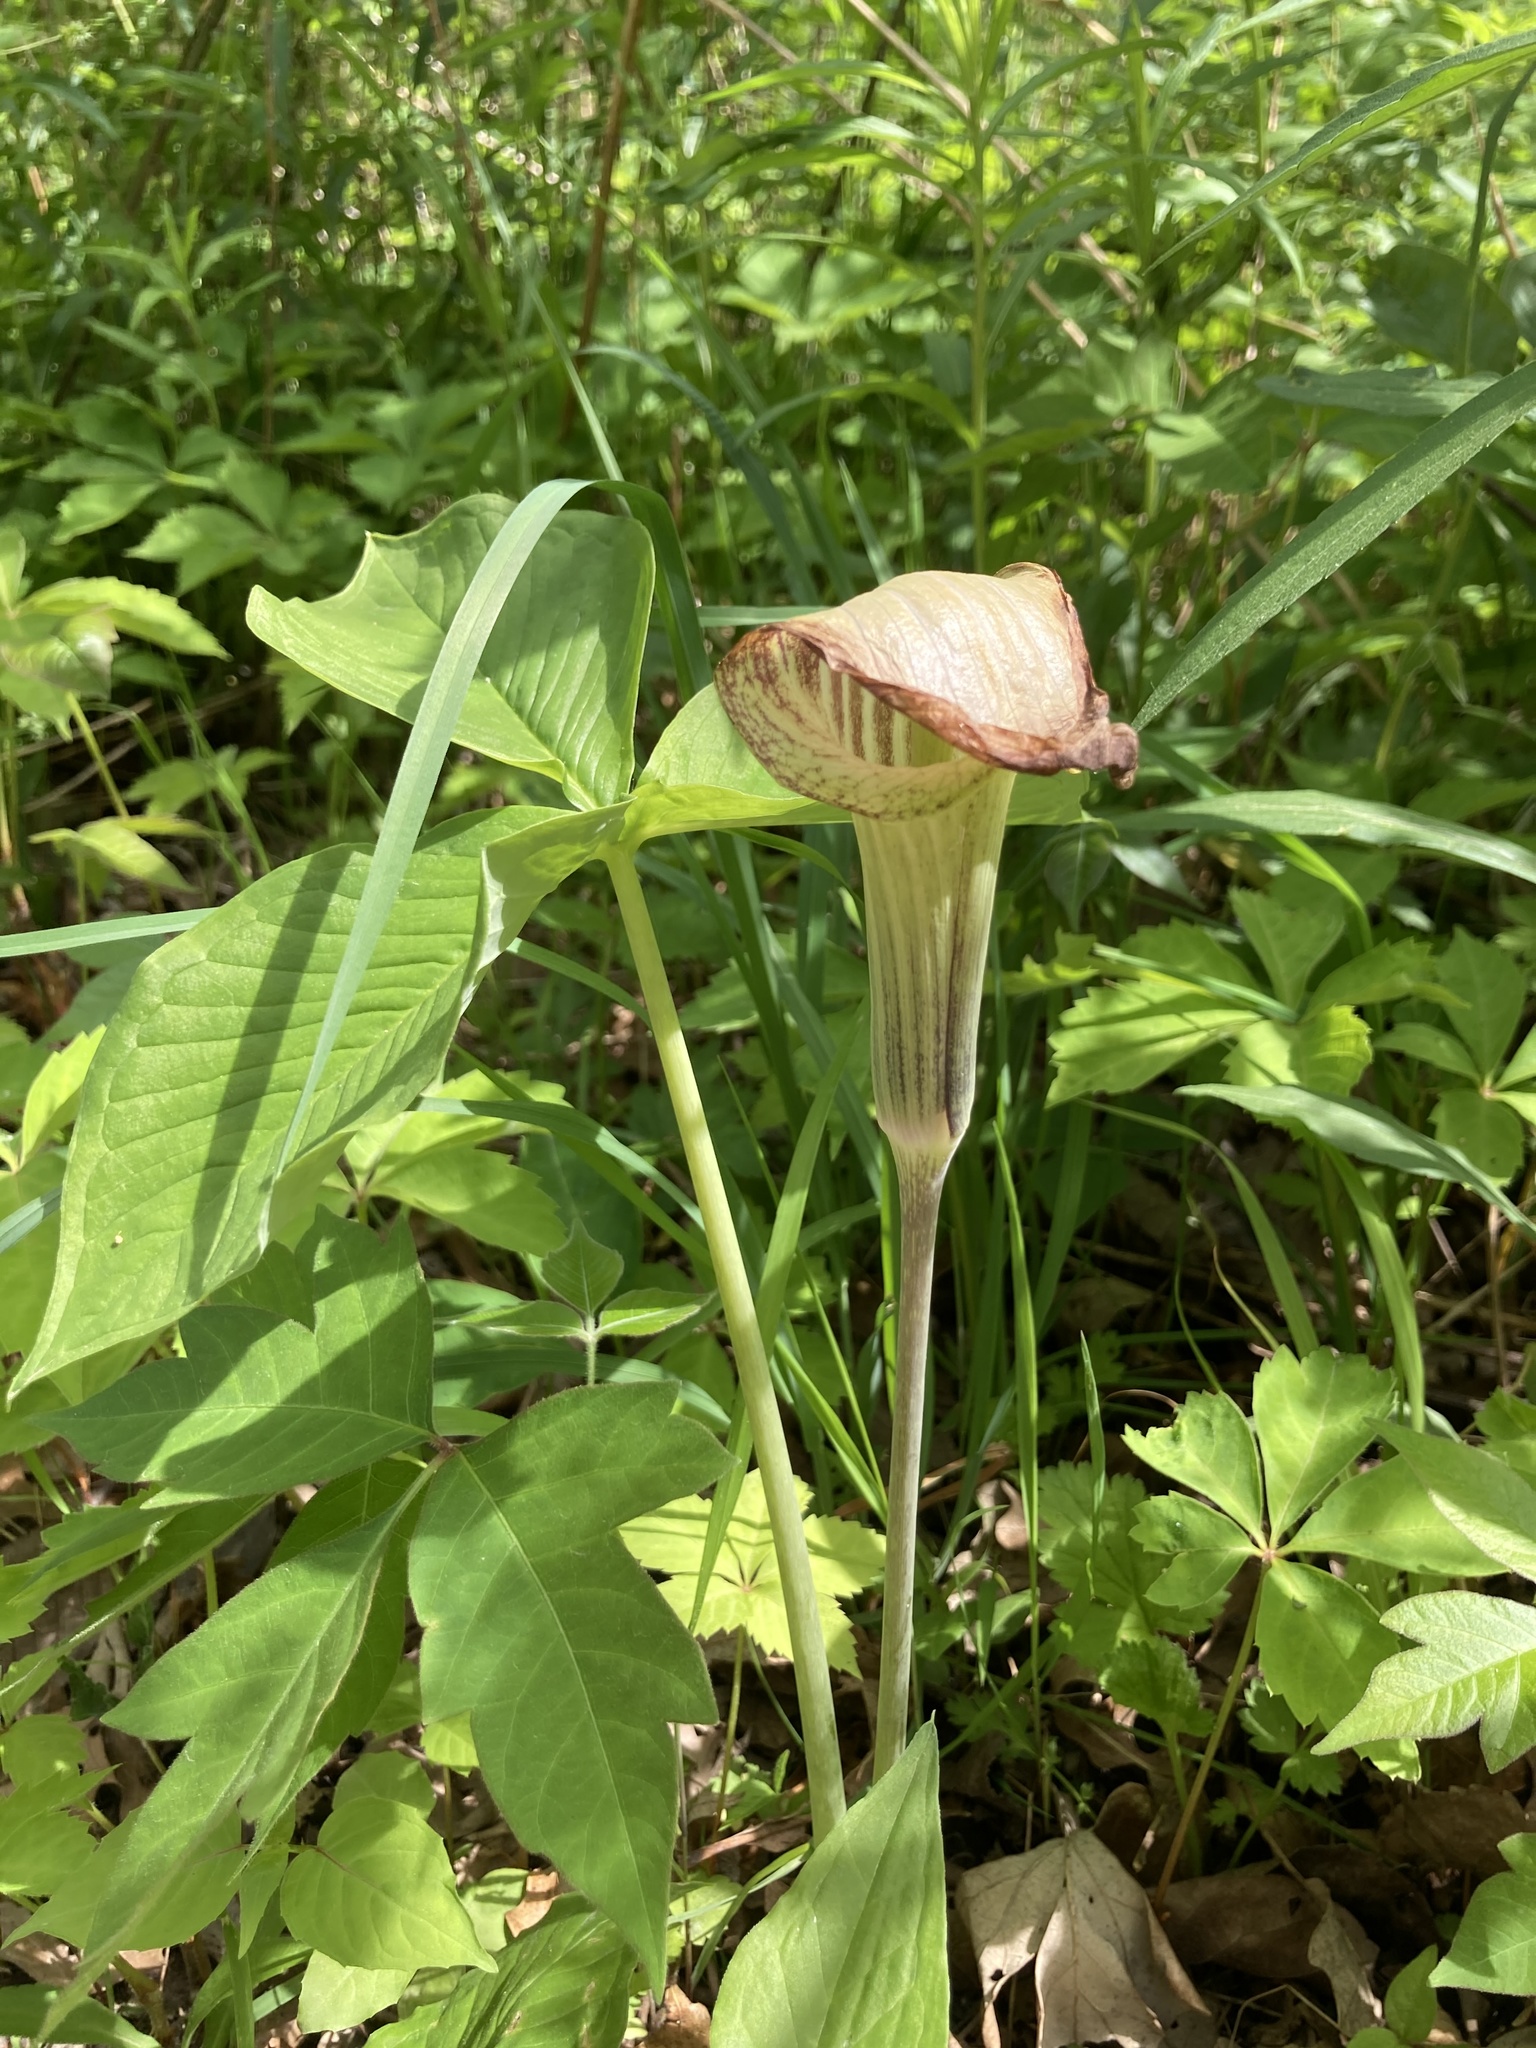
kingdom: Plantae
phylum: Tracheophyta
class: Liliopsida
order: Alismatales
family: Araceae
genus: Arisaema
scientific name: Arisaema triphyllum
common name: Jack-in-the-pulpit
